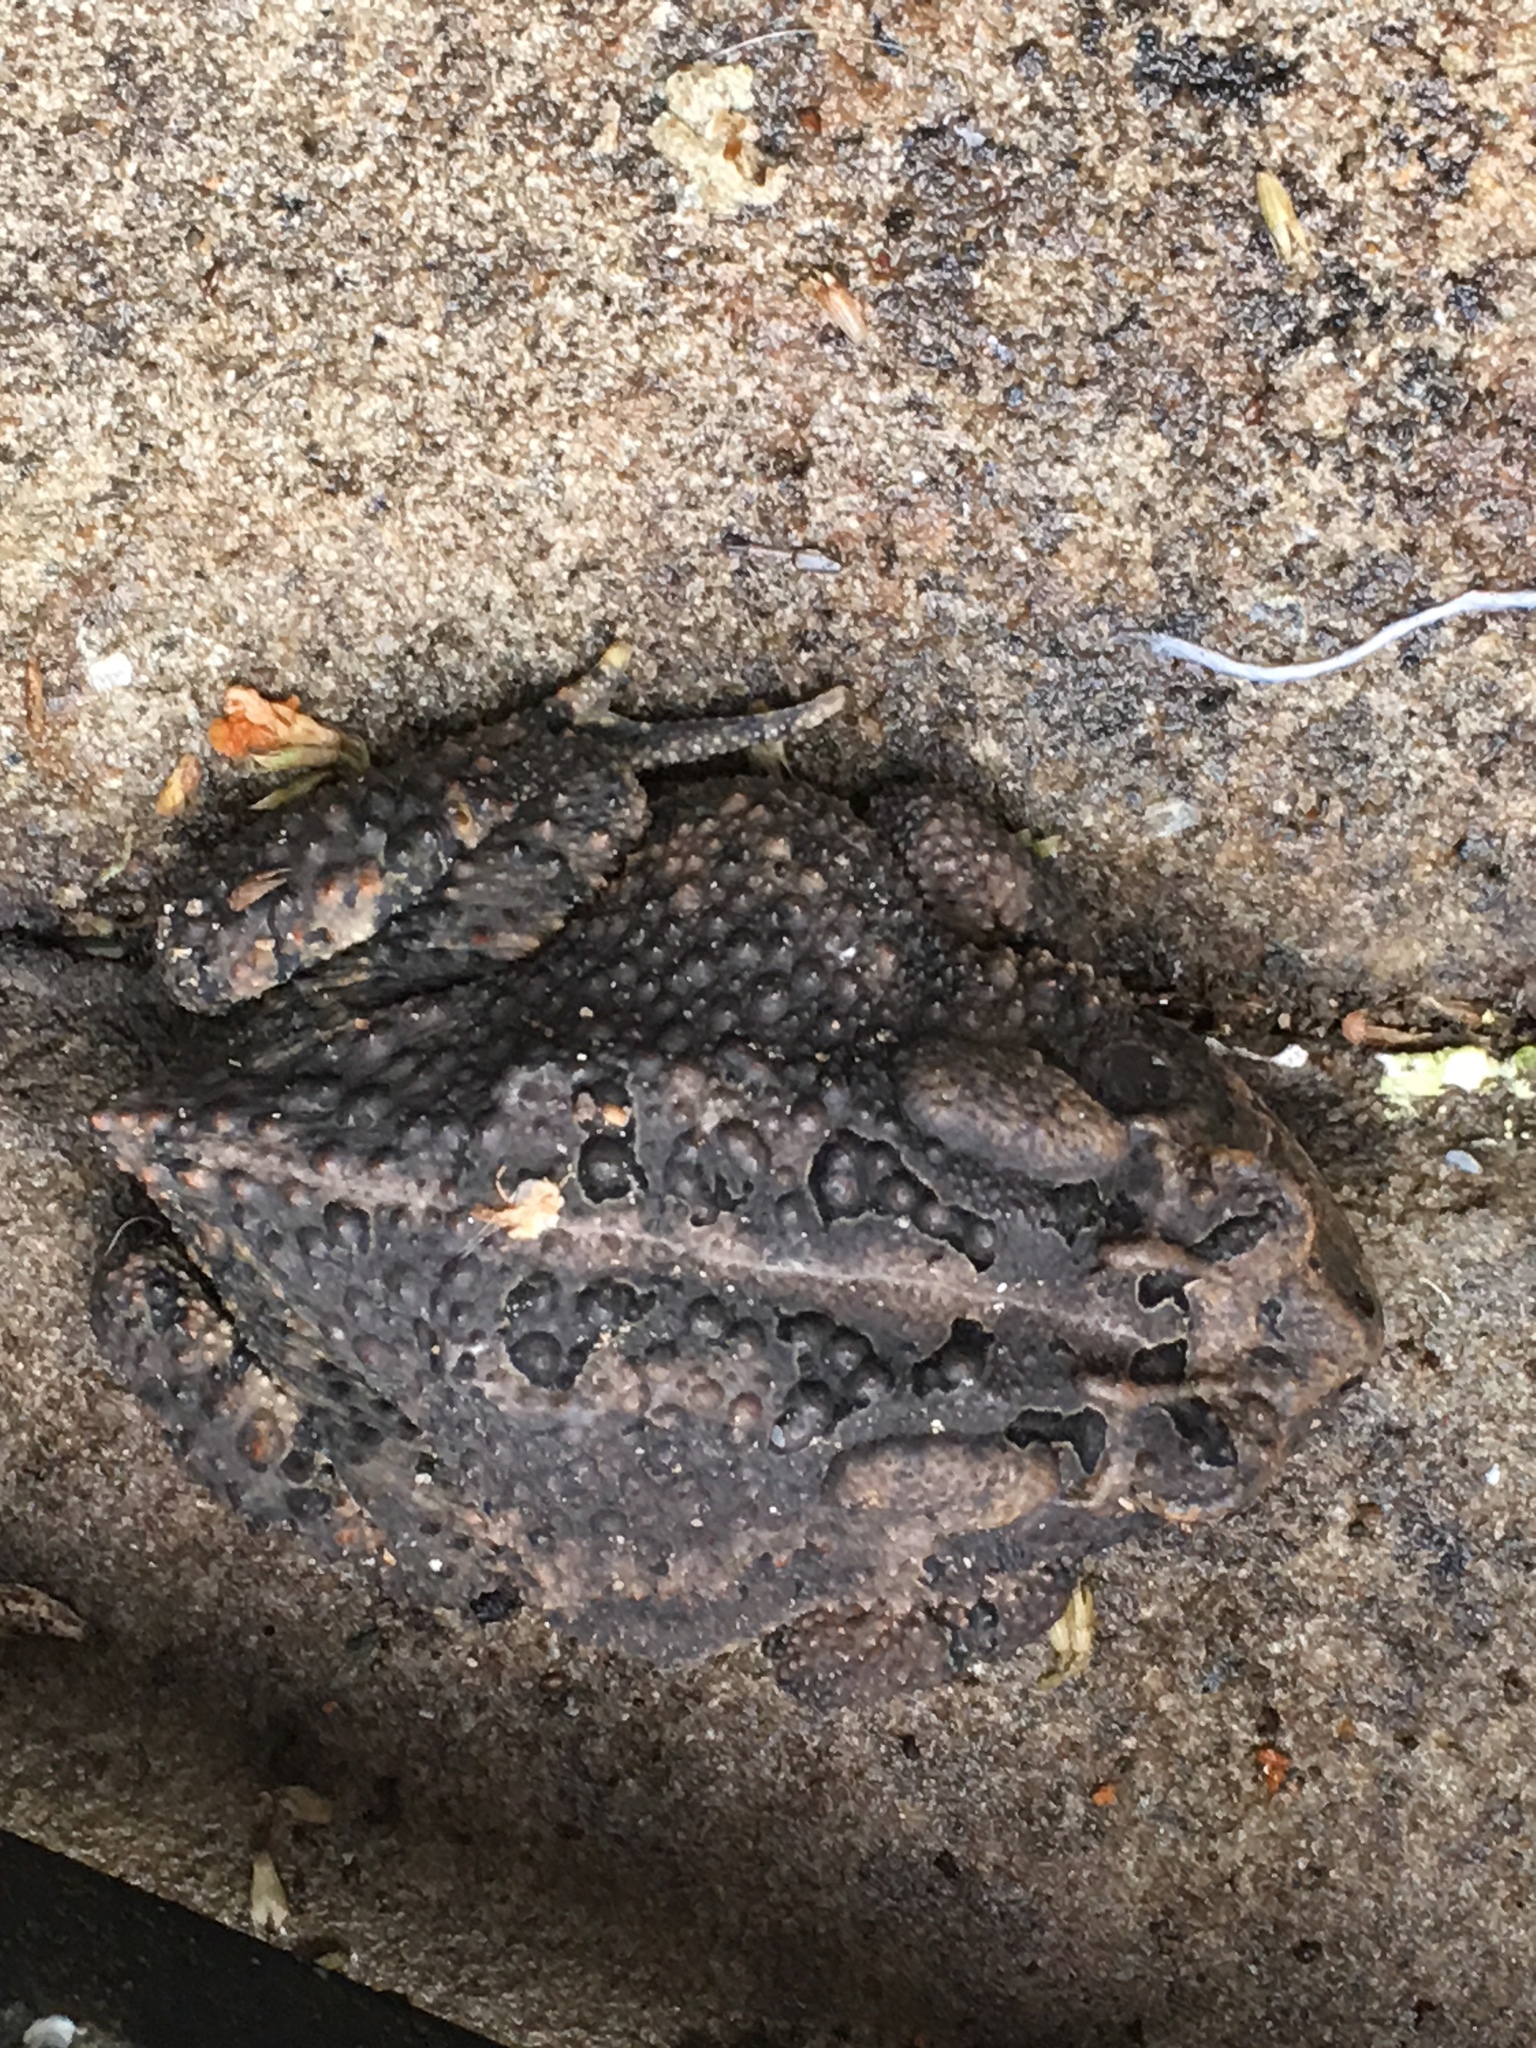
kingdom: Animalia
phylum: Chordata
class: Amphibia
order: Anura
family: Bufonidae
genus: Anaxyrus
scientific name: Anaxyrus terrestris
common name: Southern toad
